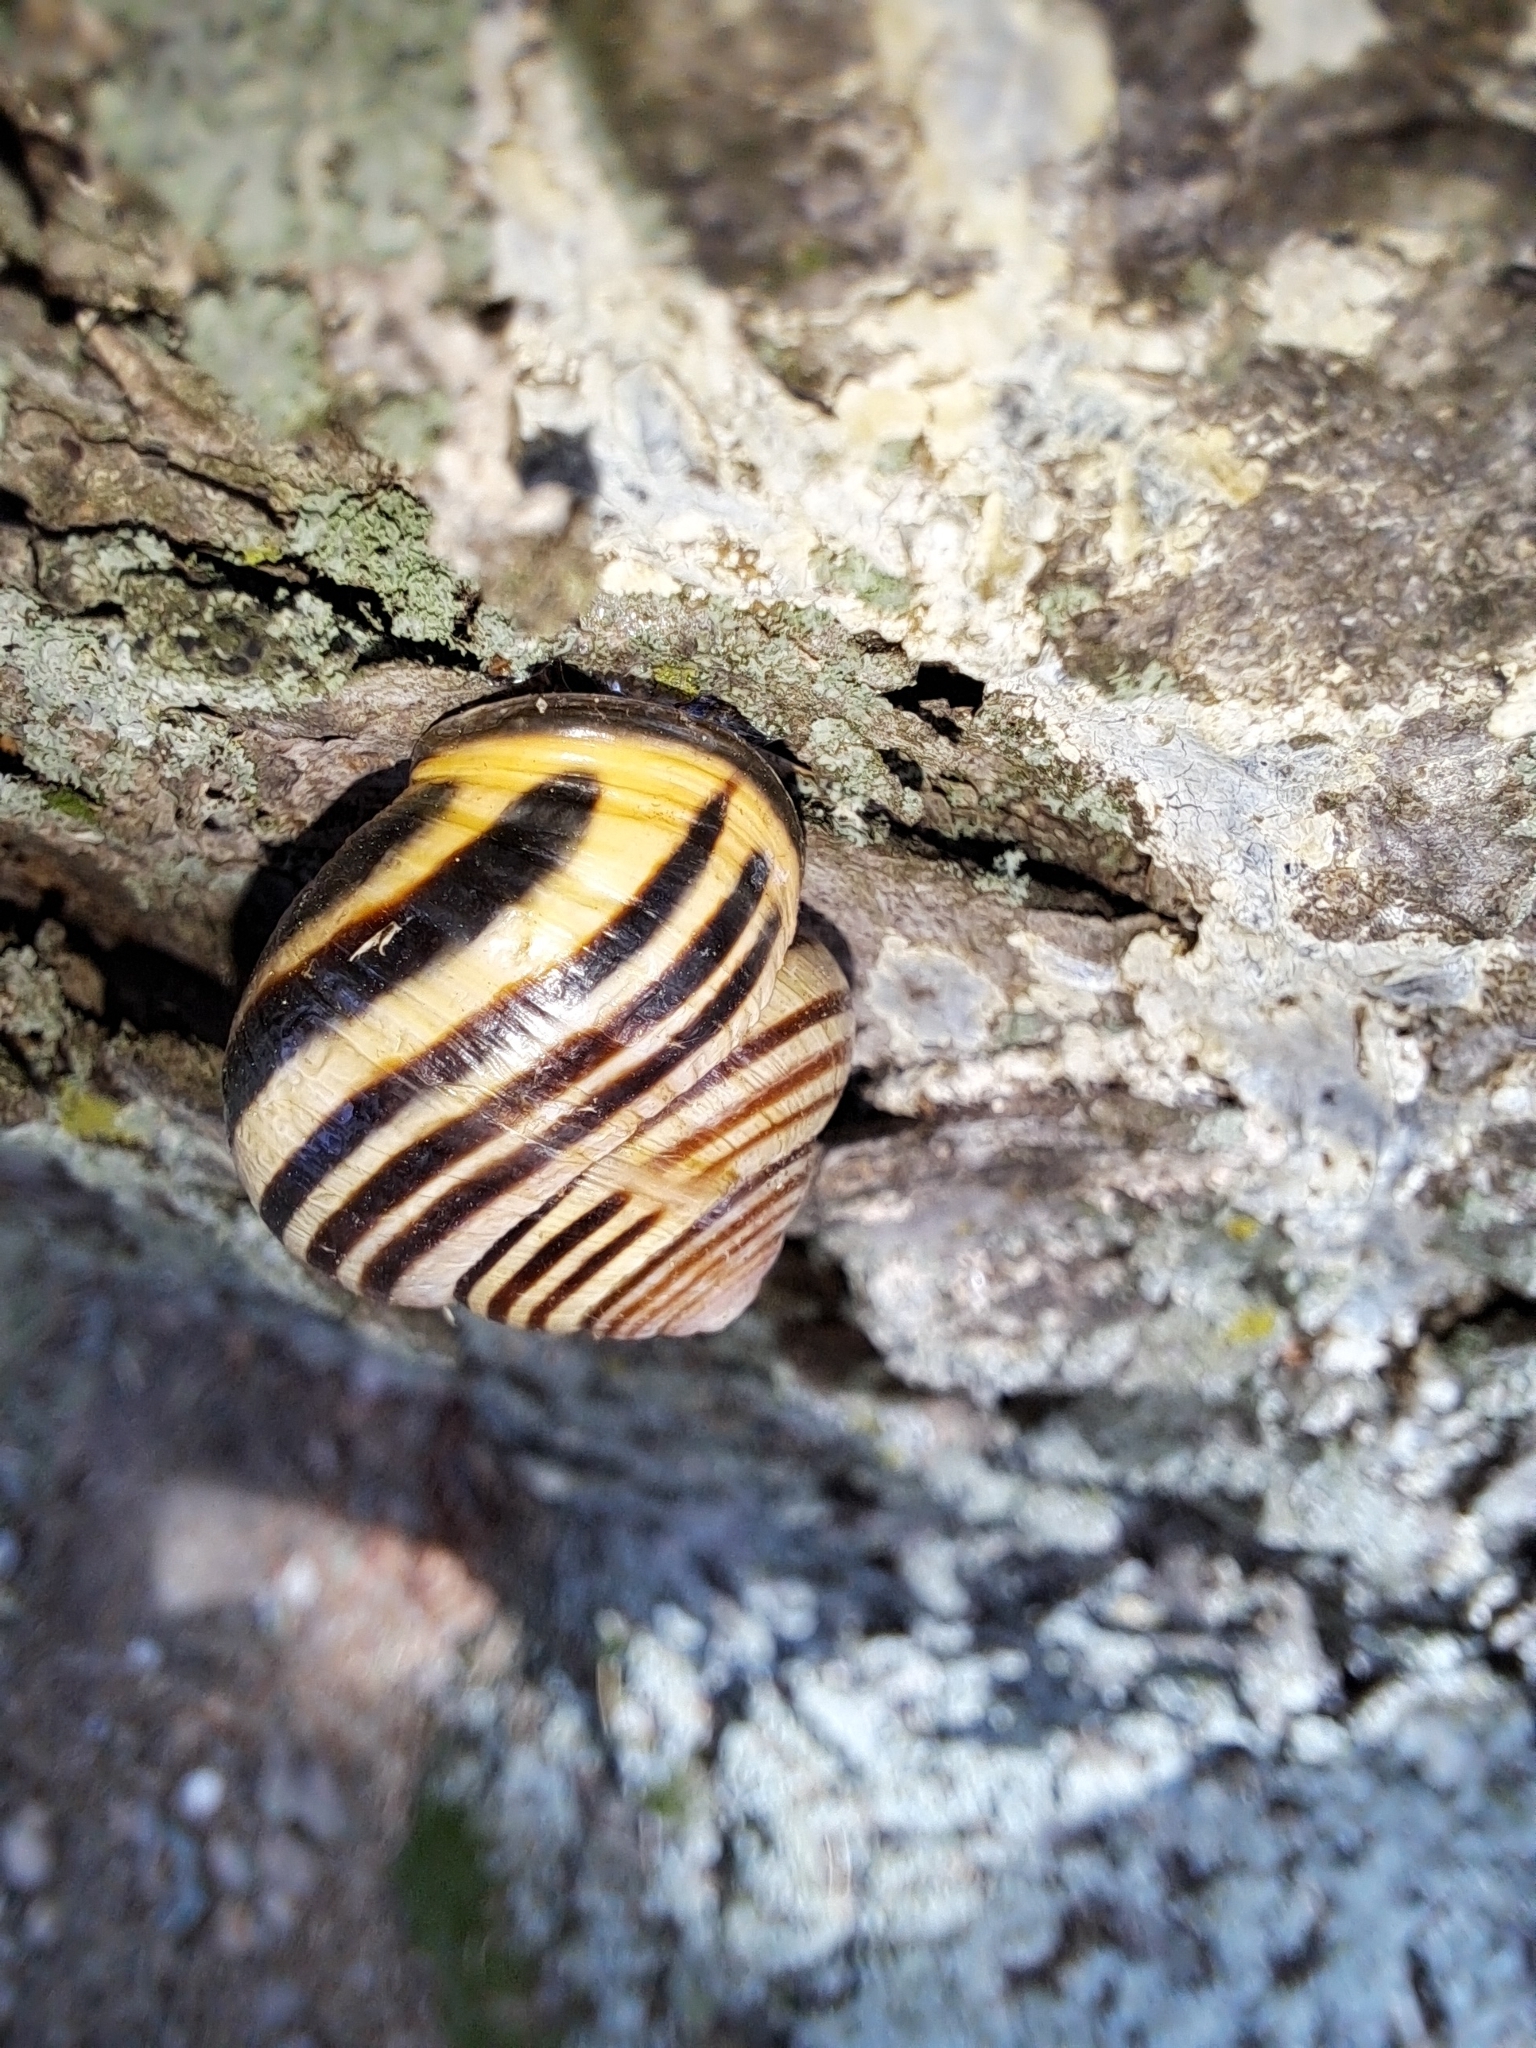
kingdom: Animalia
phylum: Mollusca
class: Gastropoda
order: Stylommatophora
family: Helicidae
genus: Cepaea
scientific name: Cepaea nemoralis
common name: Grovesnail
